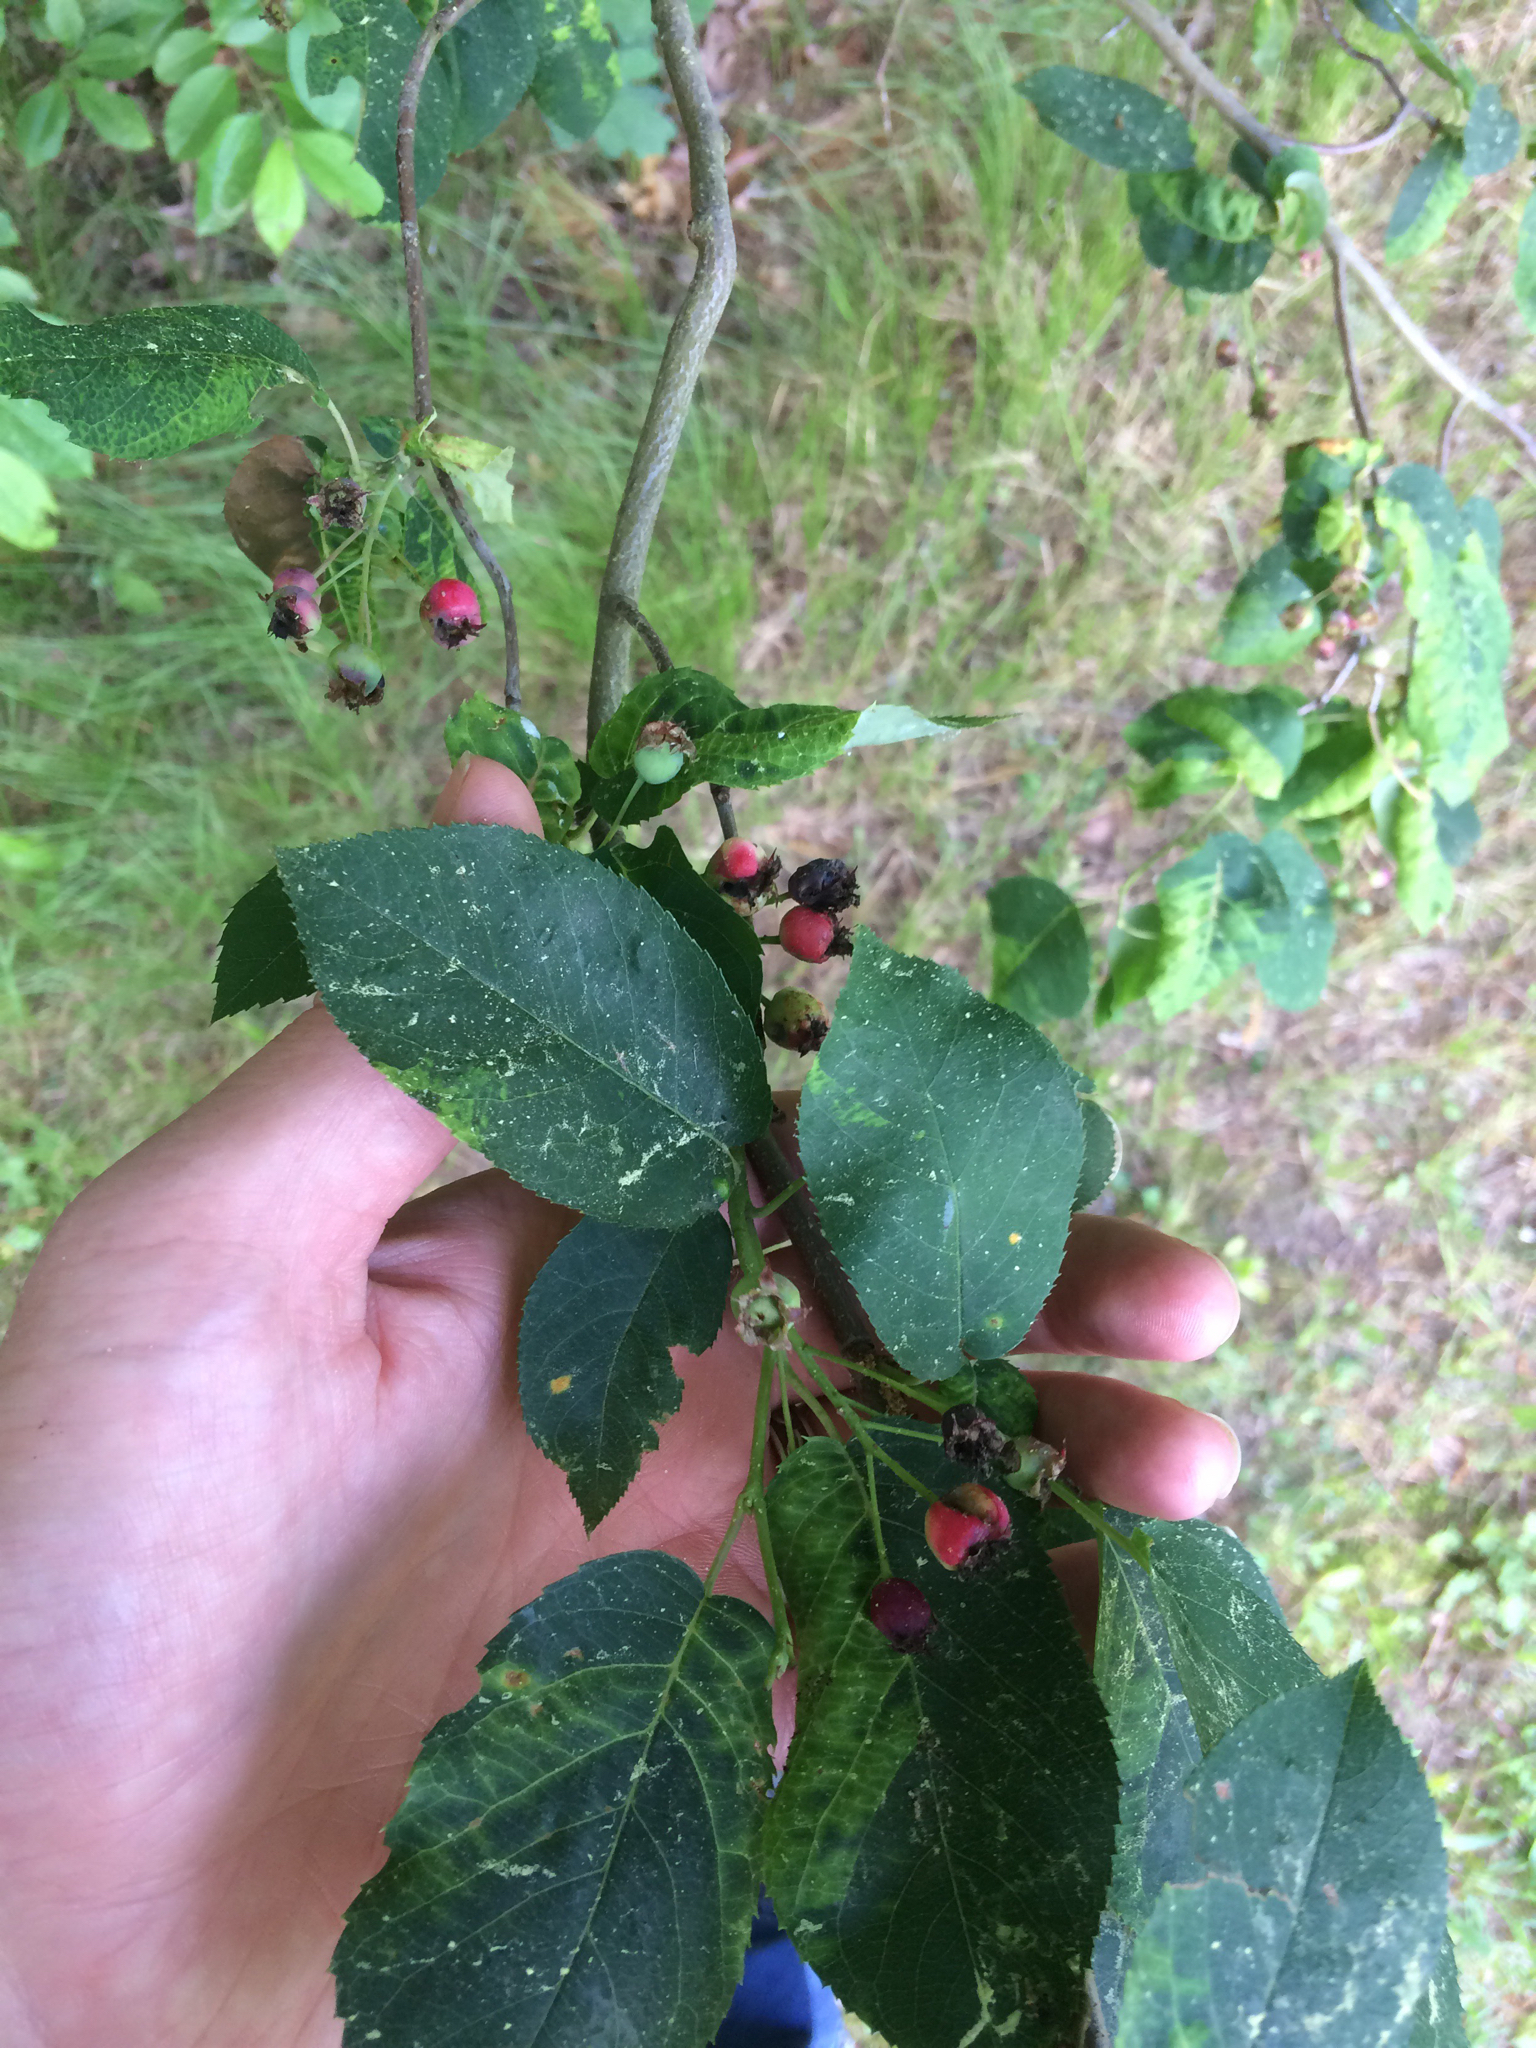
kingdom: Plantae
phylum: Tracheophyta
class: Magnoliopsida
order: Rosales
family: Rosaceae
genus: Amelanchier
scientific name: Amelanchier
